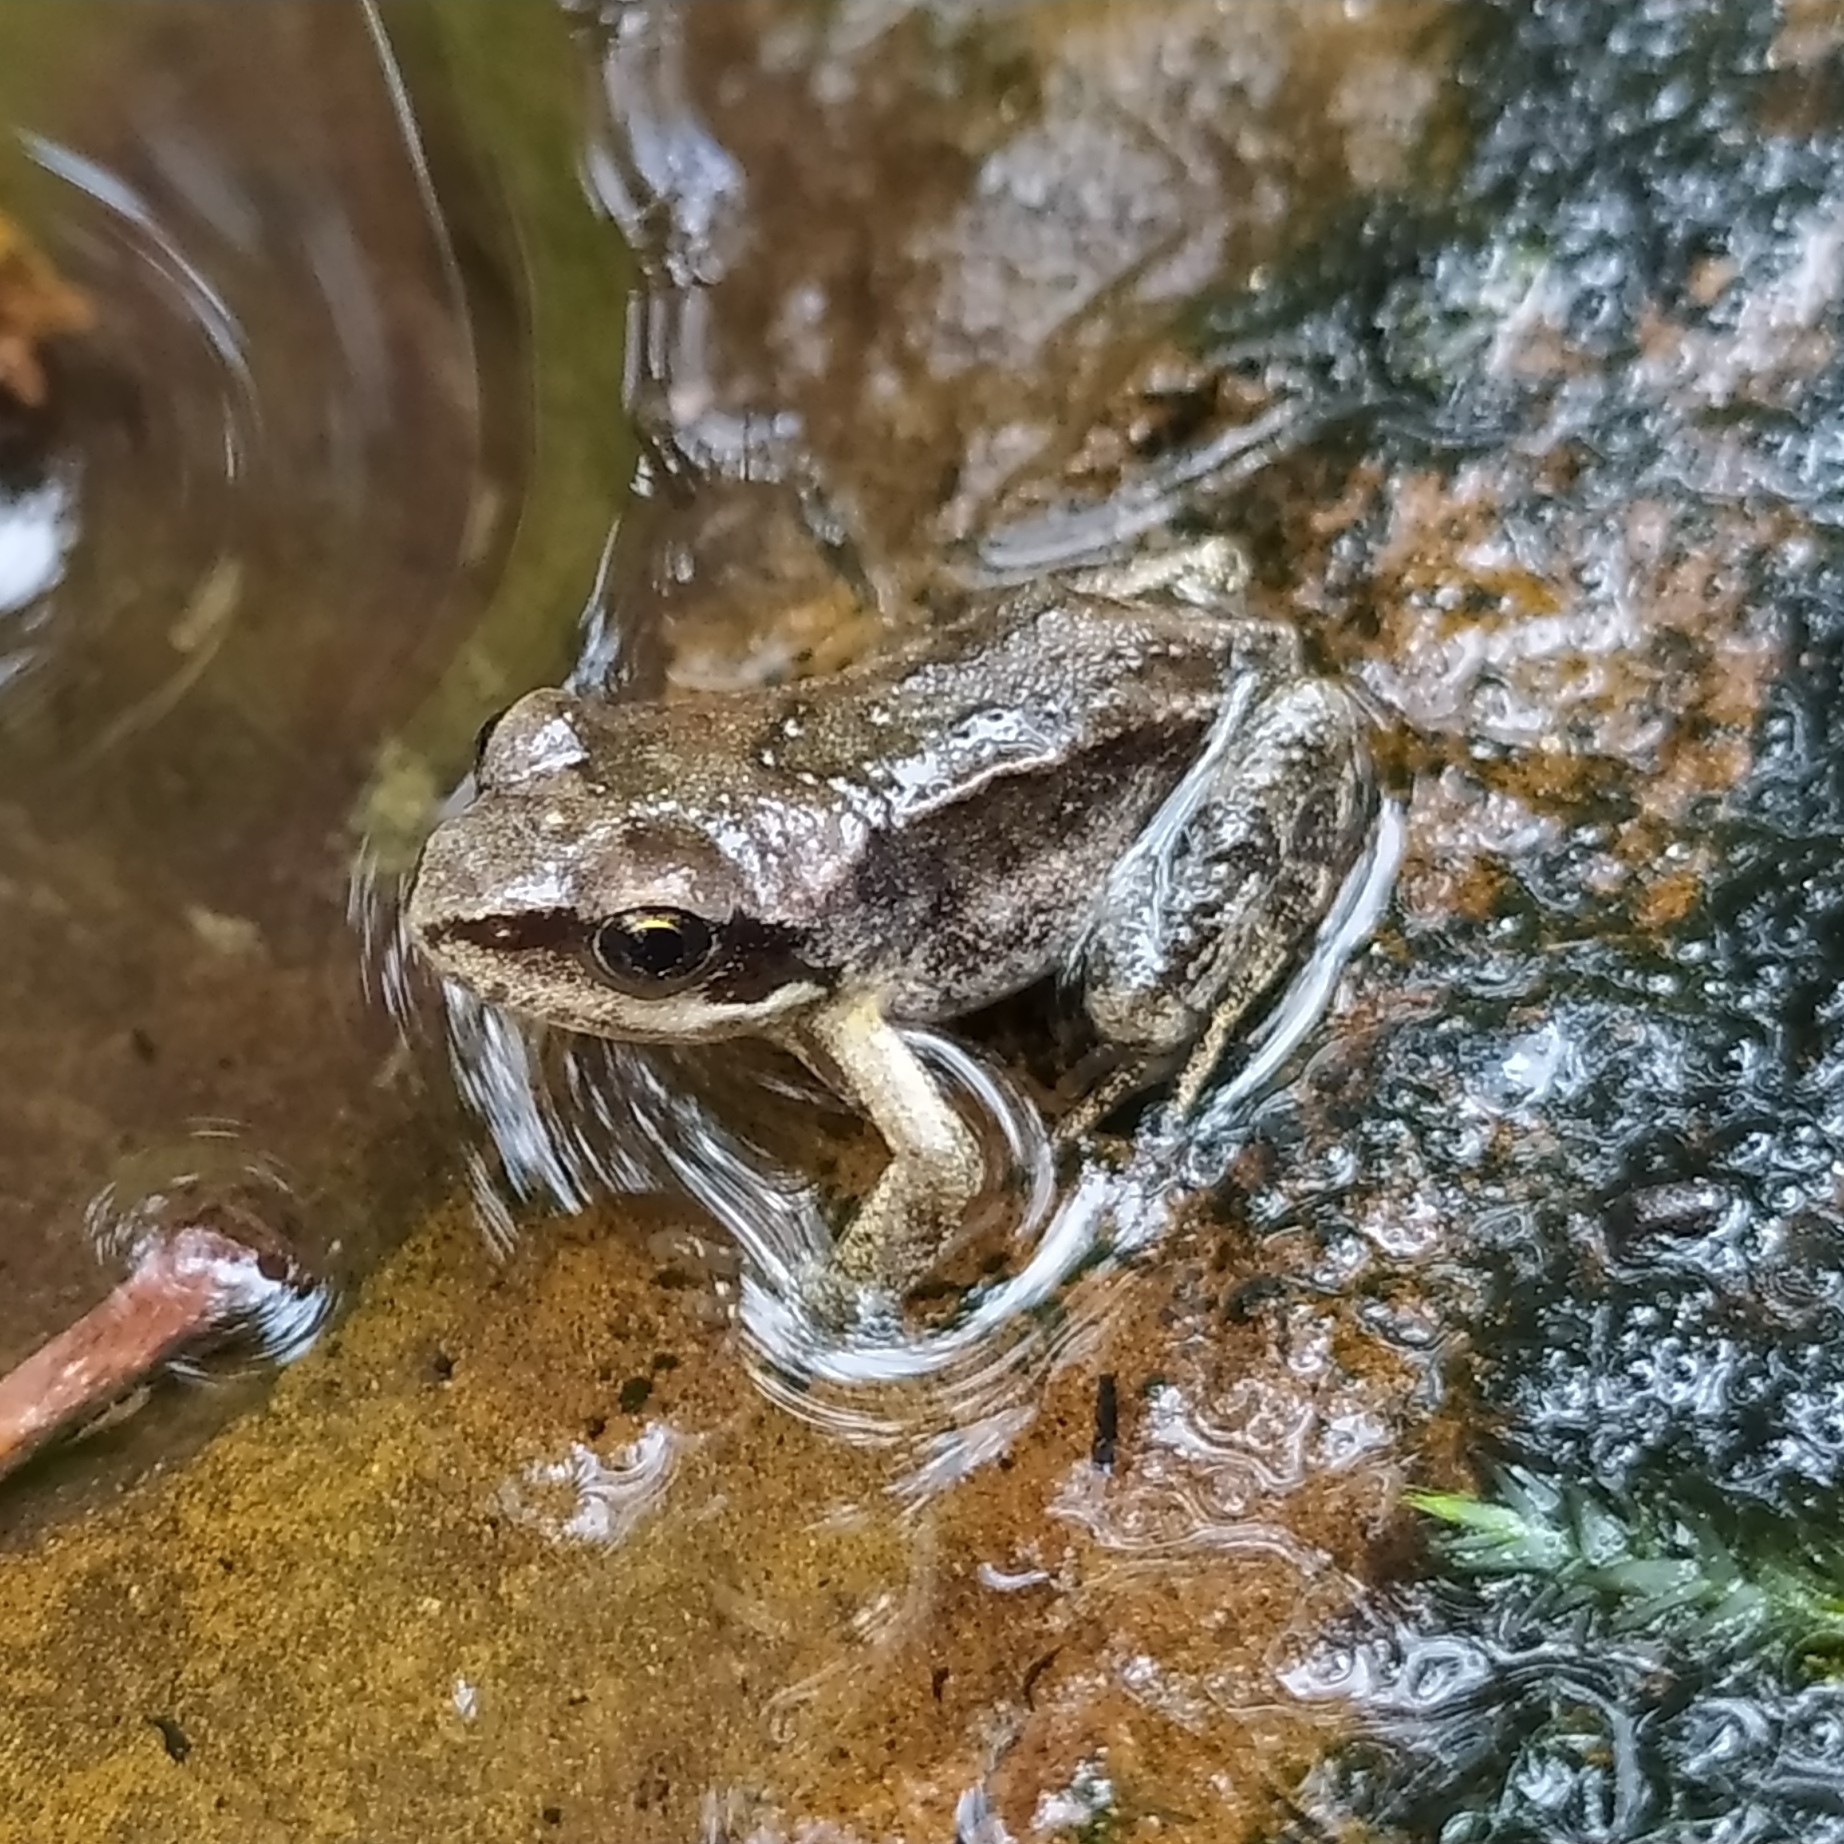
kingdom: Animalia
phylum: Chordata
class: Amphibia
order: Anura
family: Ranidae
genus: Rana
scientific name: Rana temporaria
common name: Common frog
